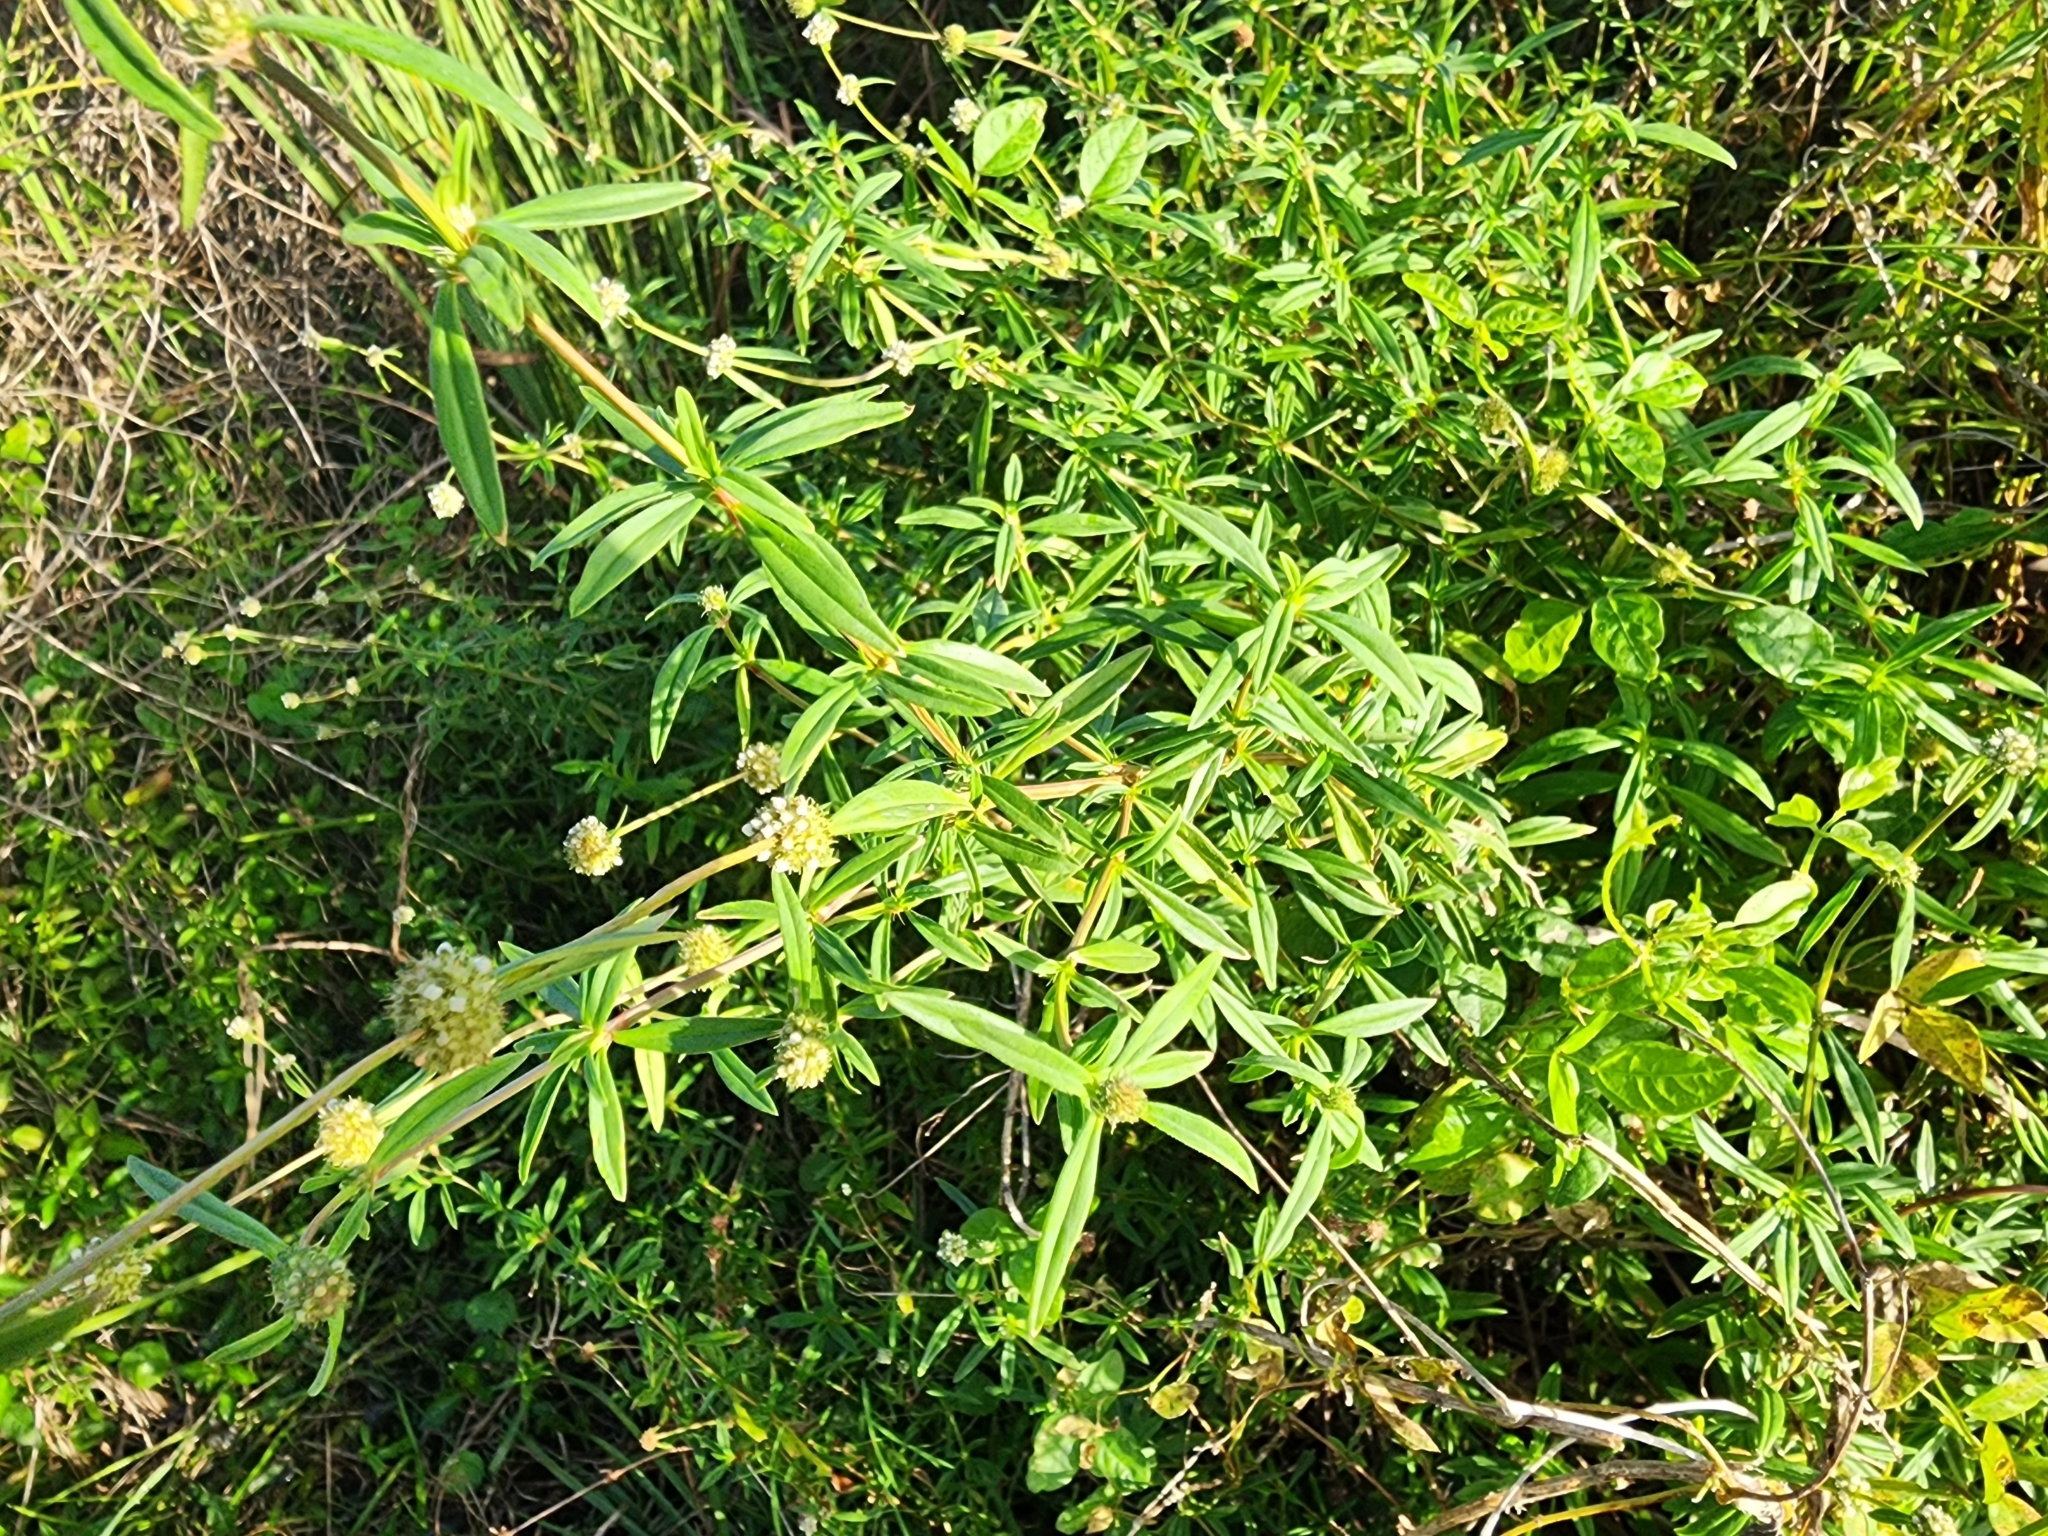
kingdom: Plantae
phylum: Tracheophyta
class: Magnoliopsida
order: Gentianales
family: Rubiaceae
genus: Spermacoce
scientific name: Spermacoce verticillata
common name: Shrubby false buttonweed
